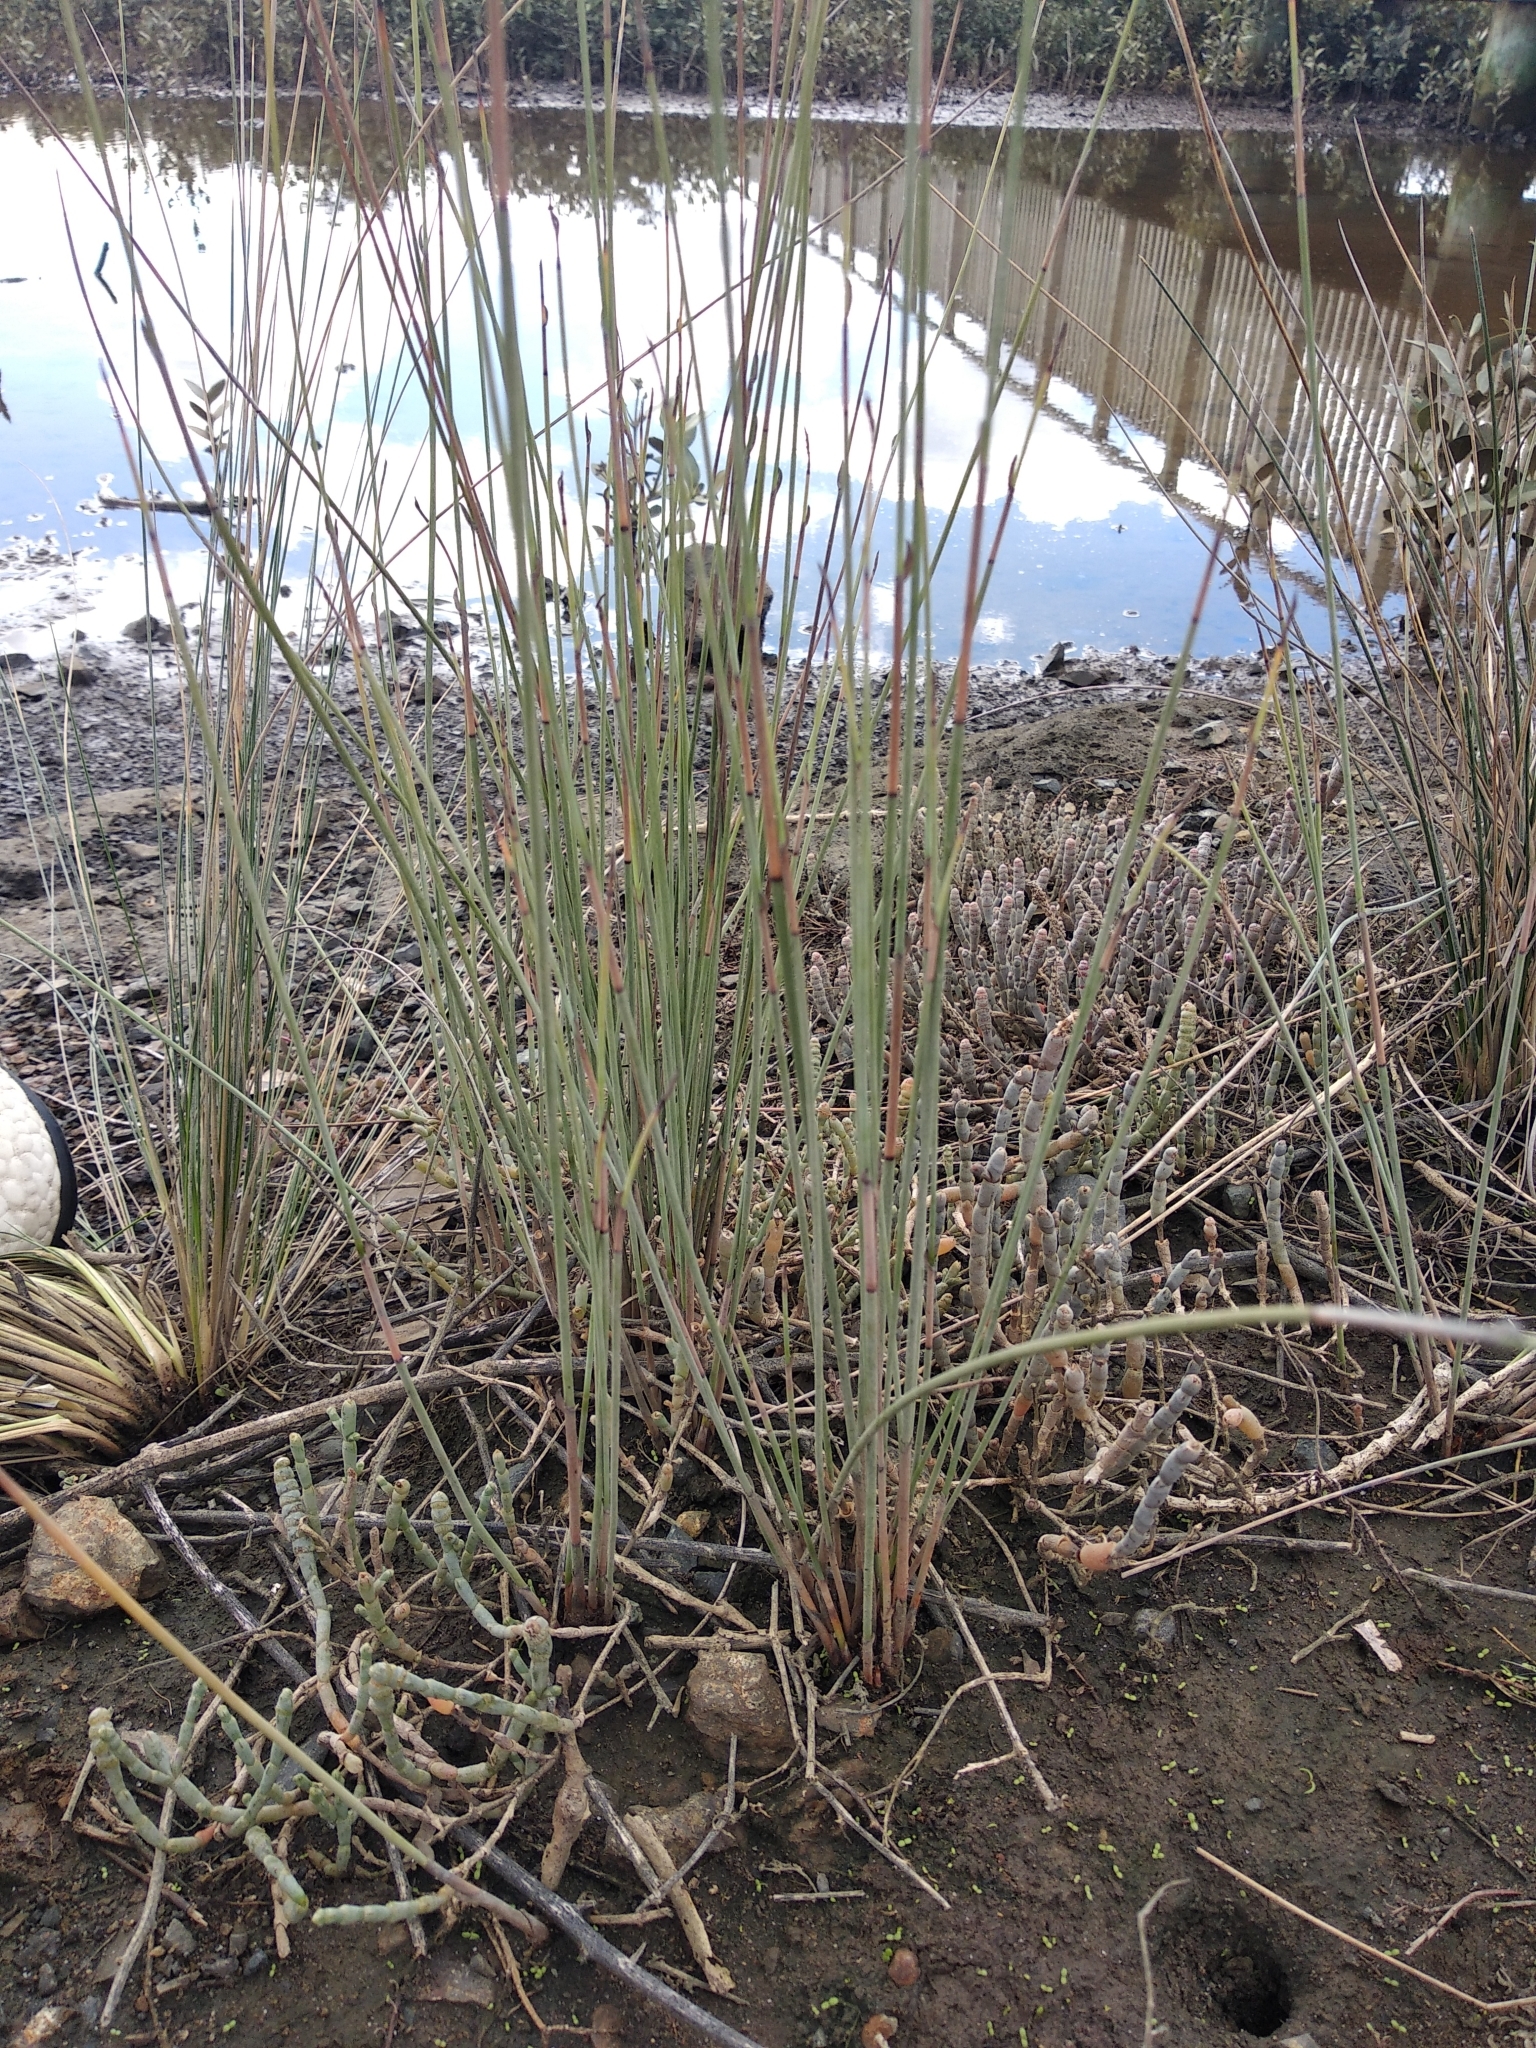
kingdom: Plantae
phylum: Tracheophyta
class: Liliopsida
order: Poales
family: Cyperaceae
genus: Machaerina
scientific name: Machaerina juncea
